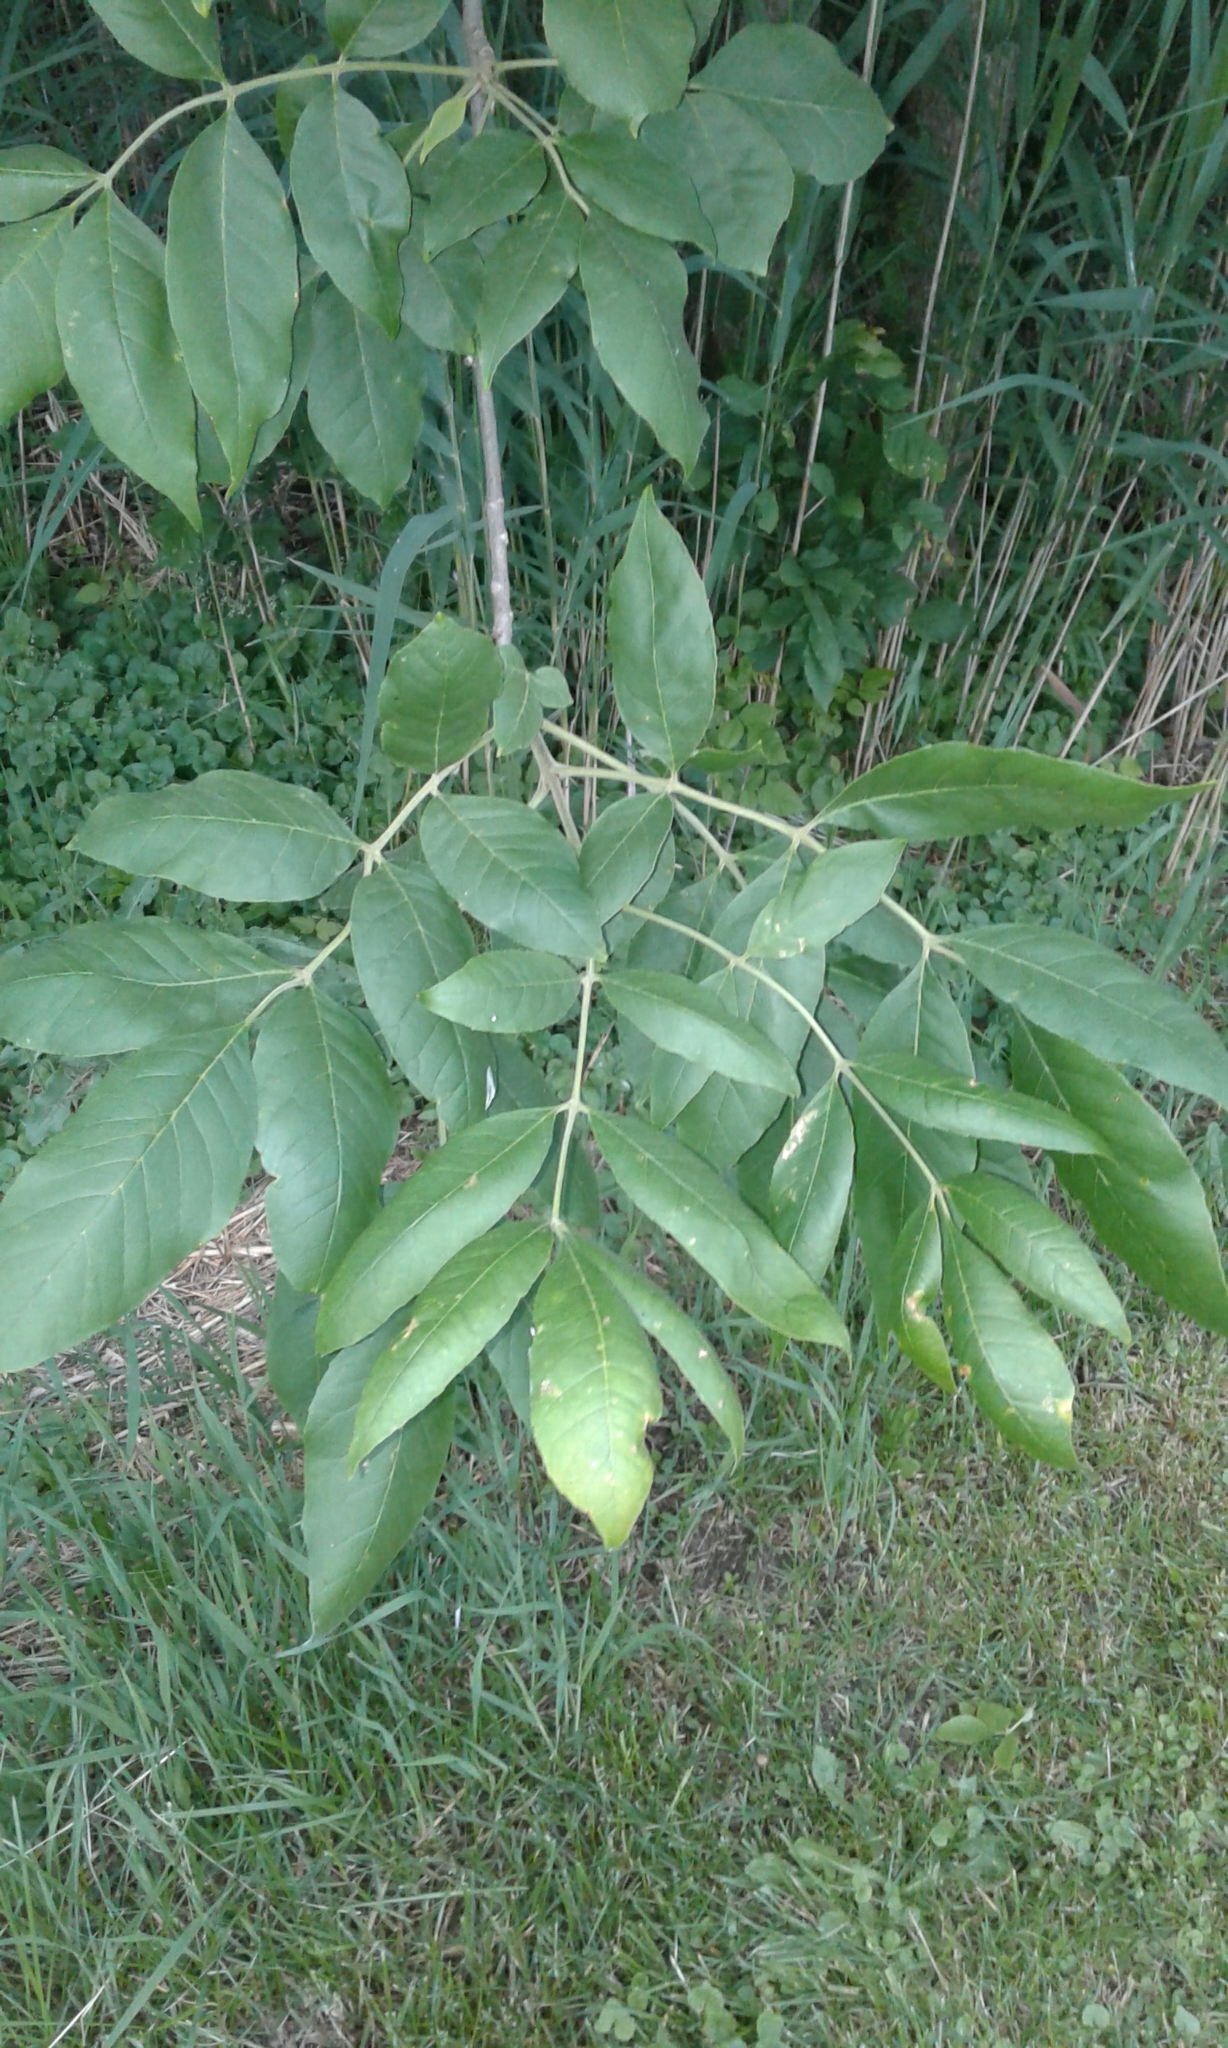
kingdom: Plantae
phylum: Tracheophyta
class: Magnoliopsida
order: Lamiales
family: Oleaceae
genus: Fraxinus
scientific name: Fraxinus pennsylvanica
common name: Green ash
